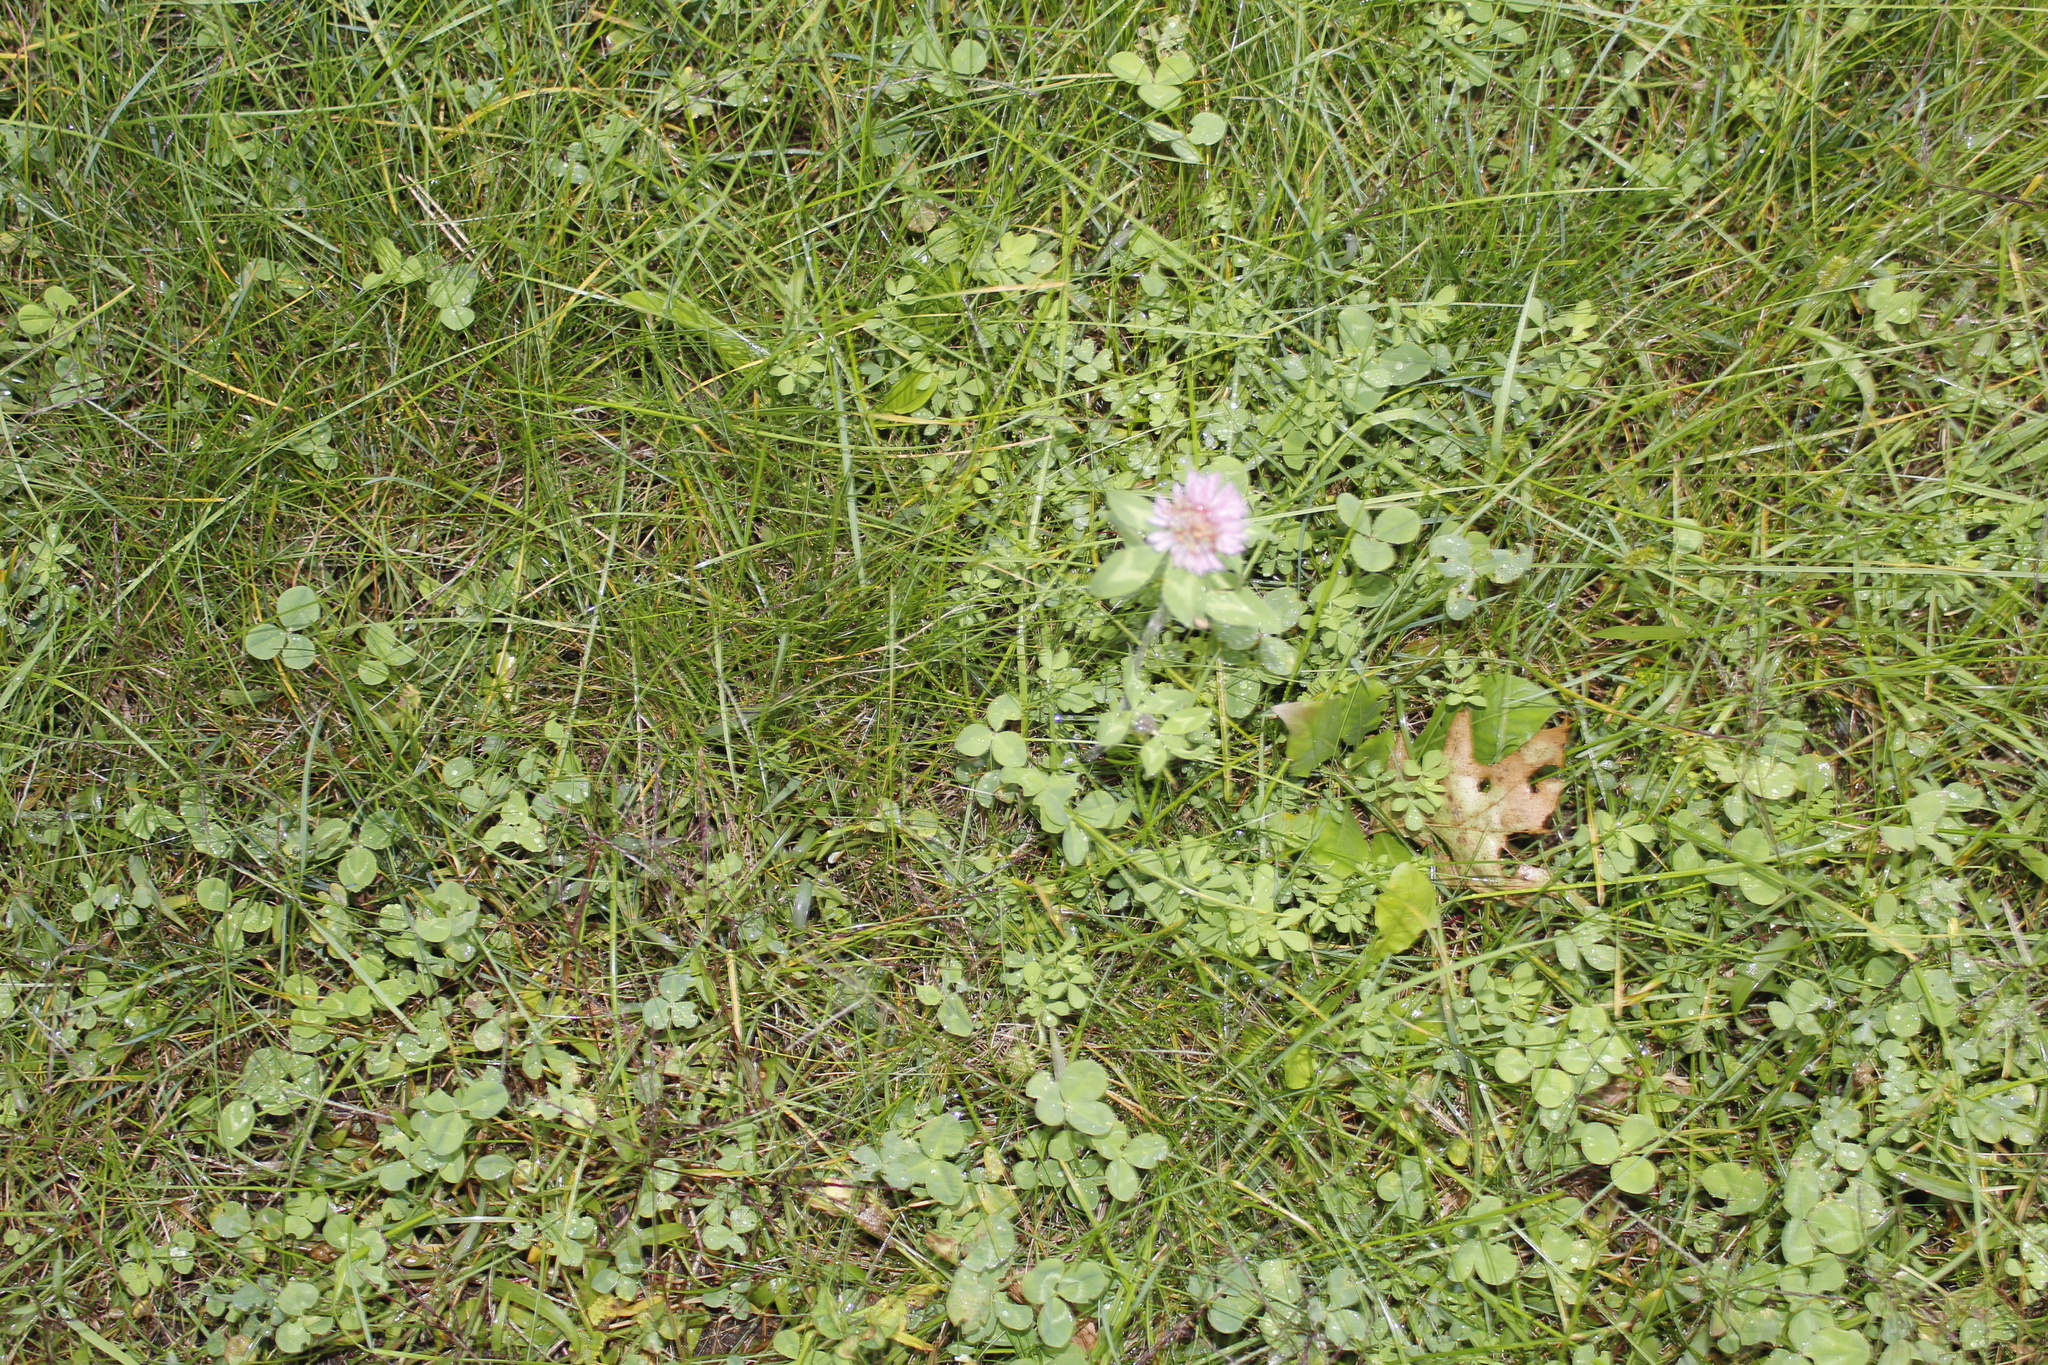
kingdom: Plantae
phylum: Tracheophyta
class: Magnoliopsida
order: Fabales
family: Fabaceae
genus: Trifolium
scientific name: Trifolium pratense
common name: Red clover
